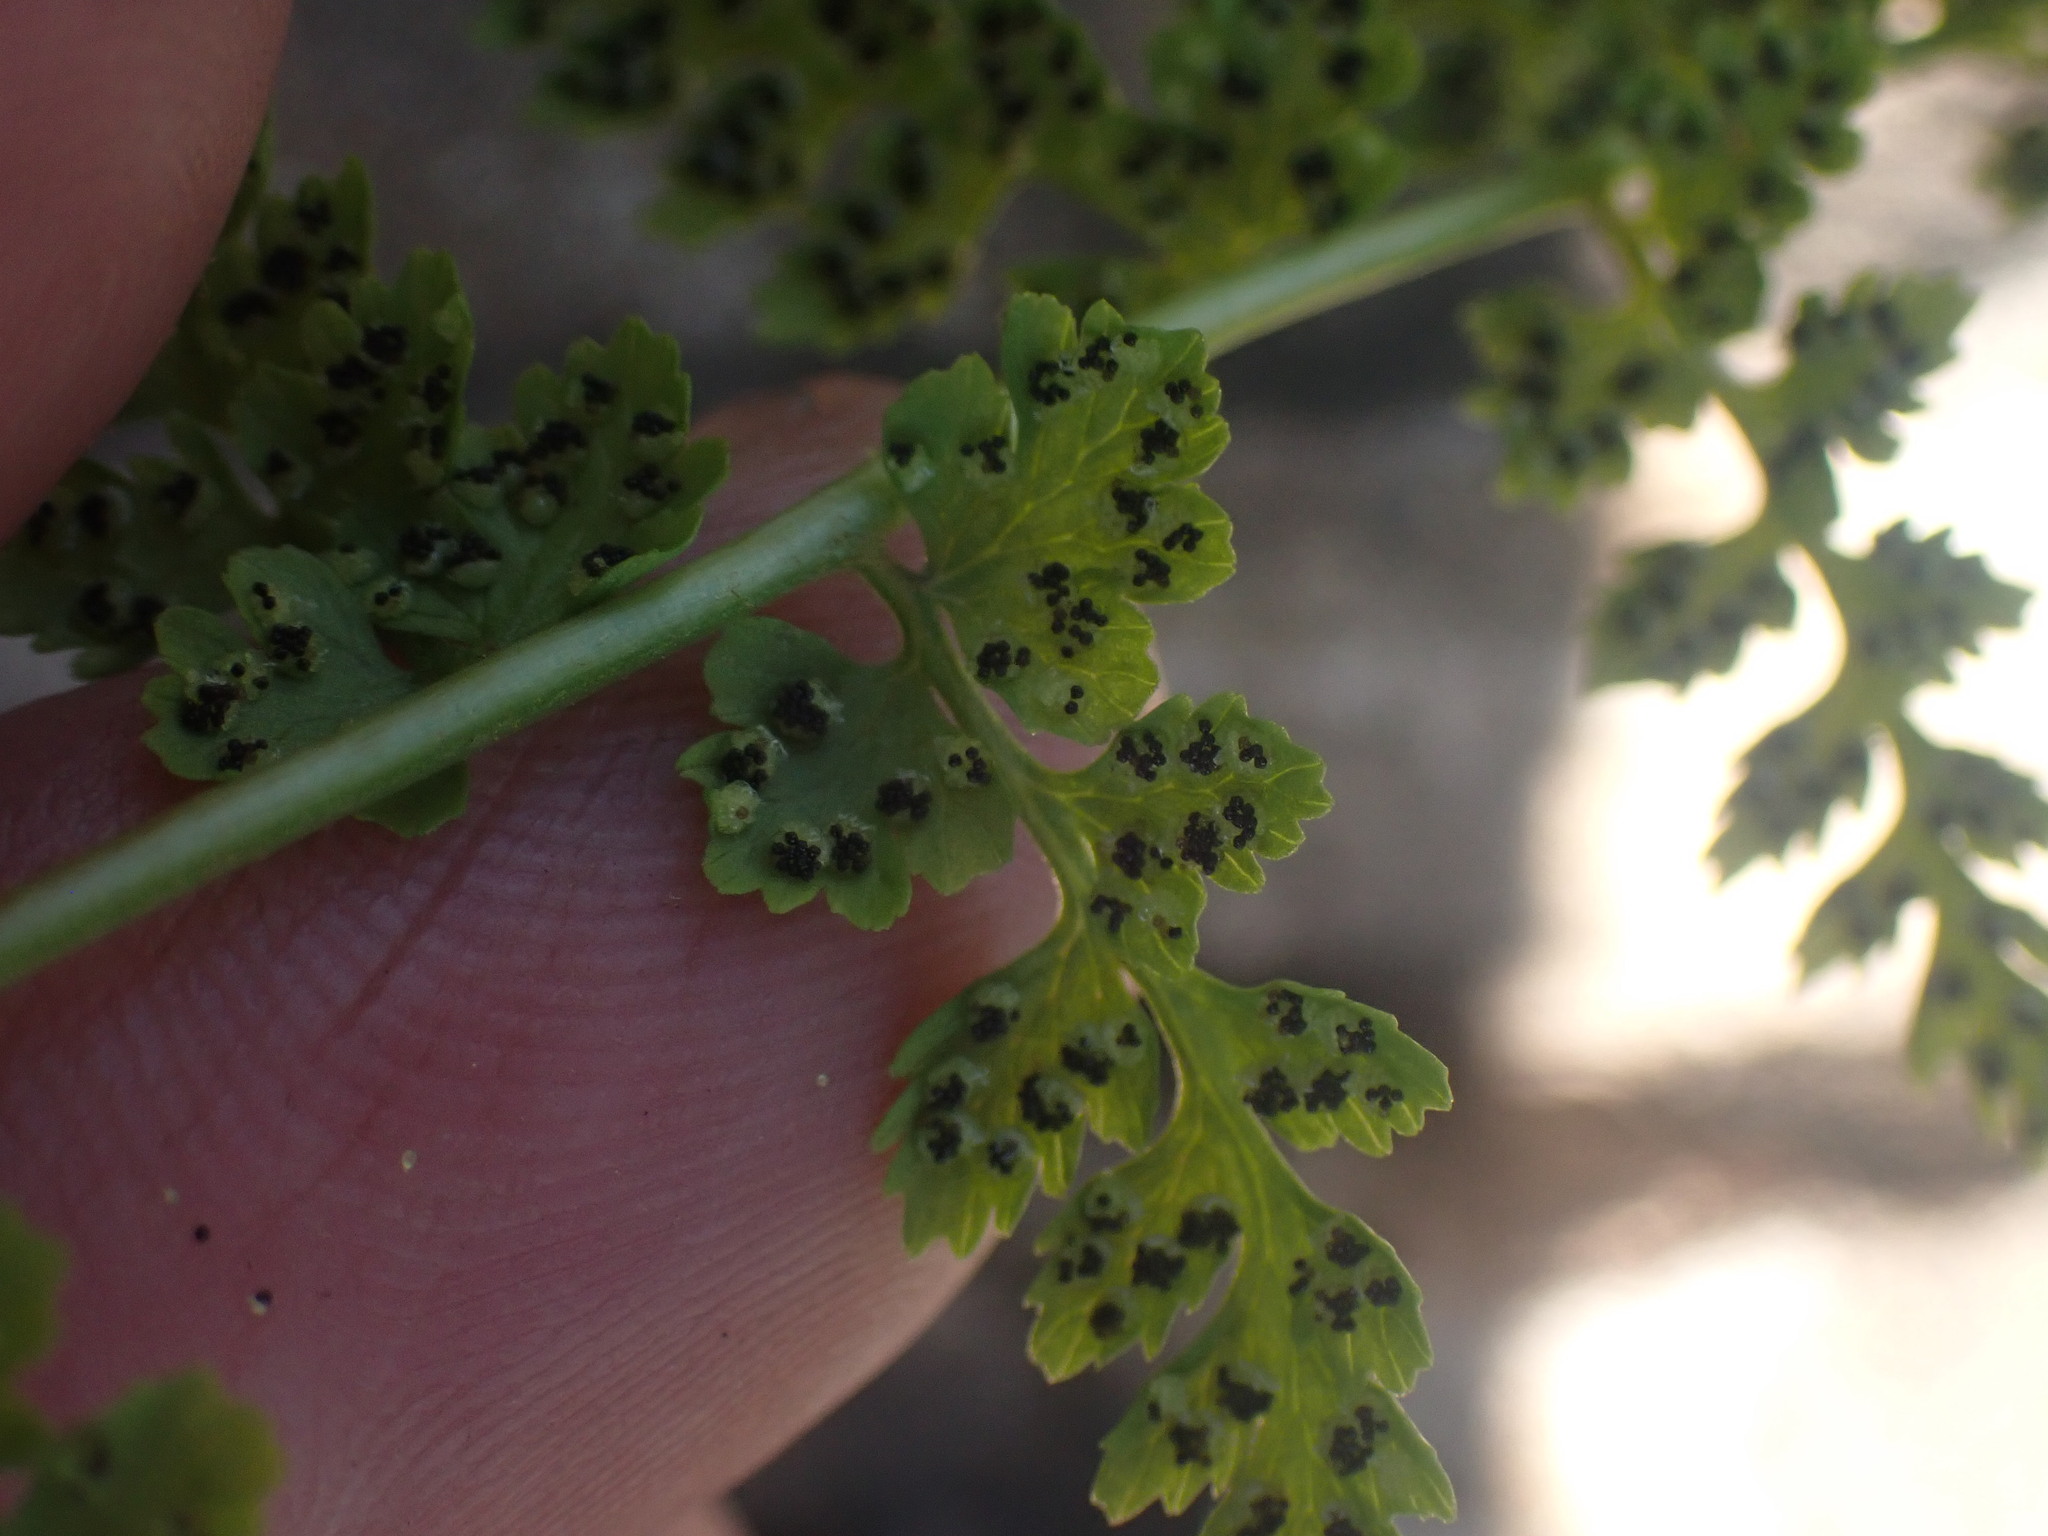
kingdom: Plantae
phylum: Tracheophyta
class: Polypodiopsida
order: Polypodiales
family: Cystopteridaceae
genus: Cystopteris
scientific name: Cystopteris fragilis
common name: Brittle bladder fern
